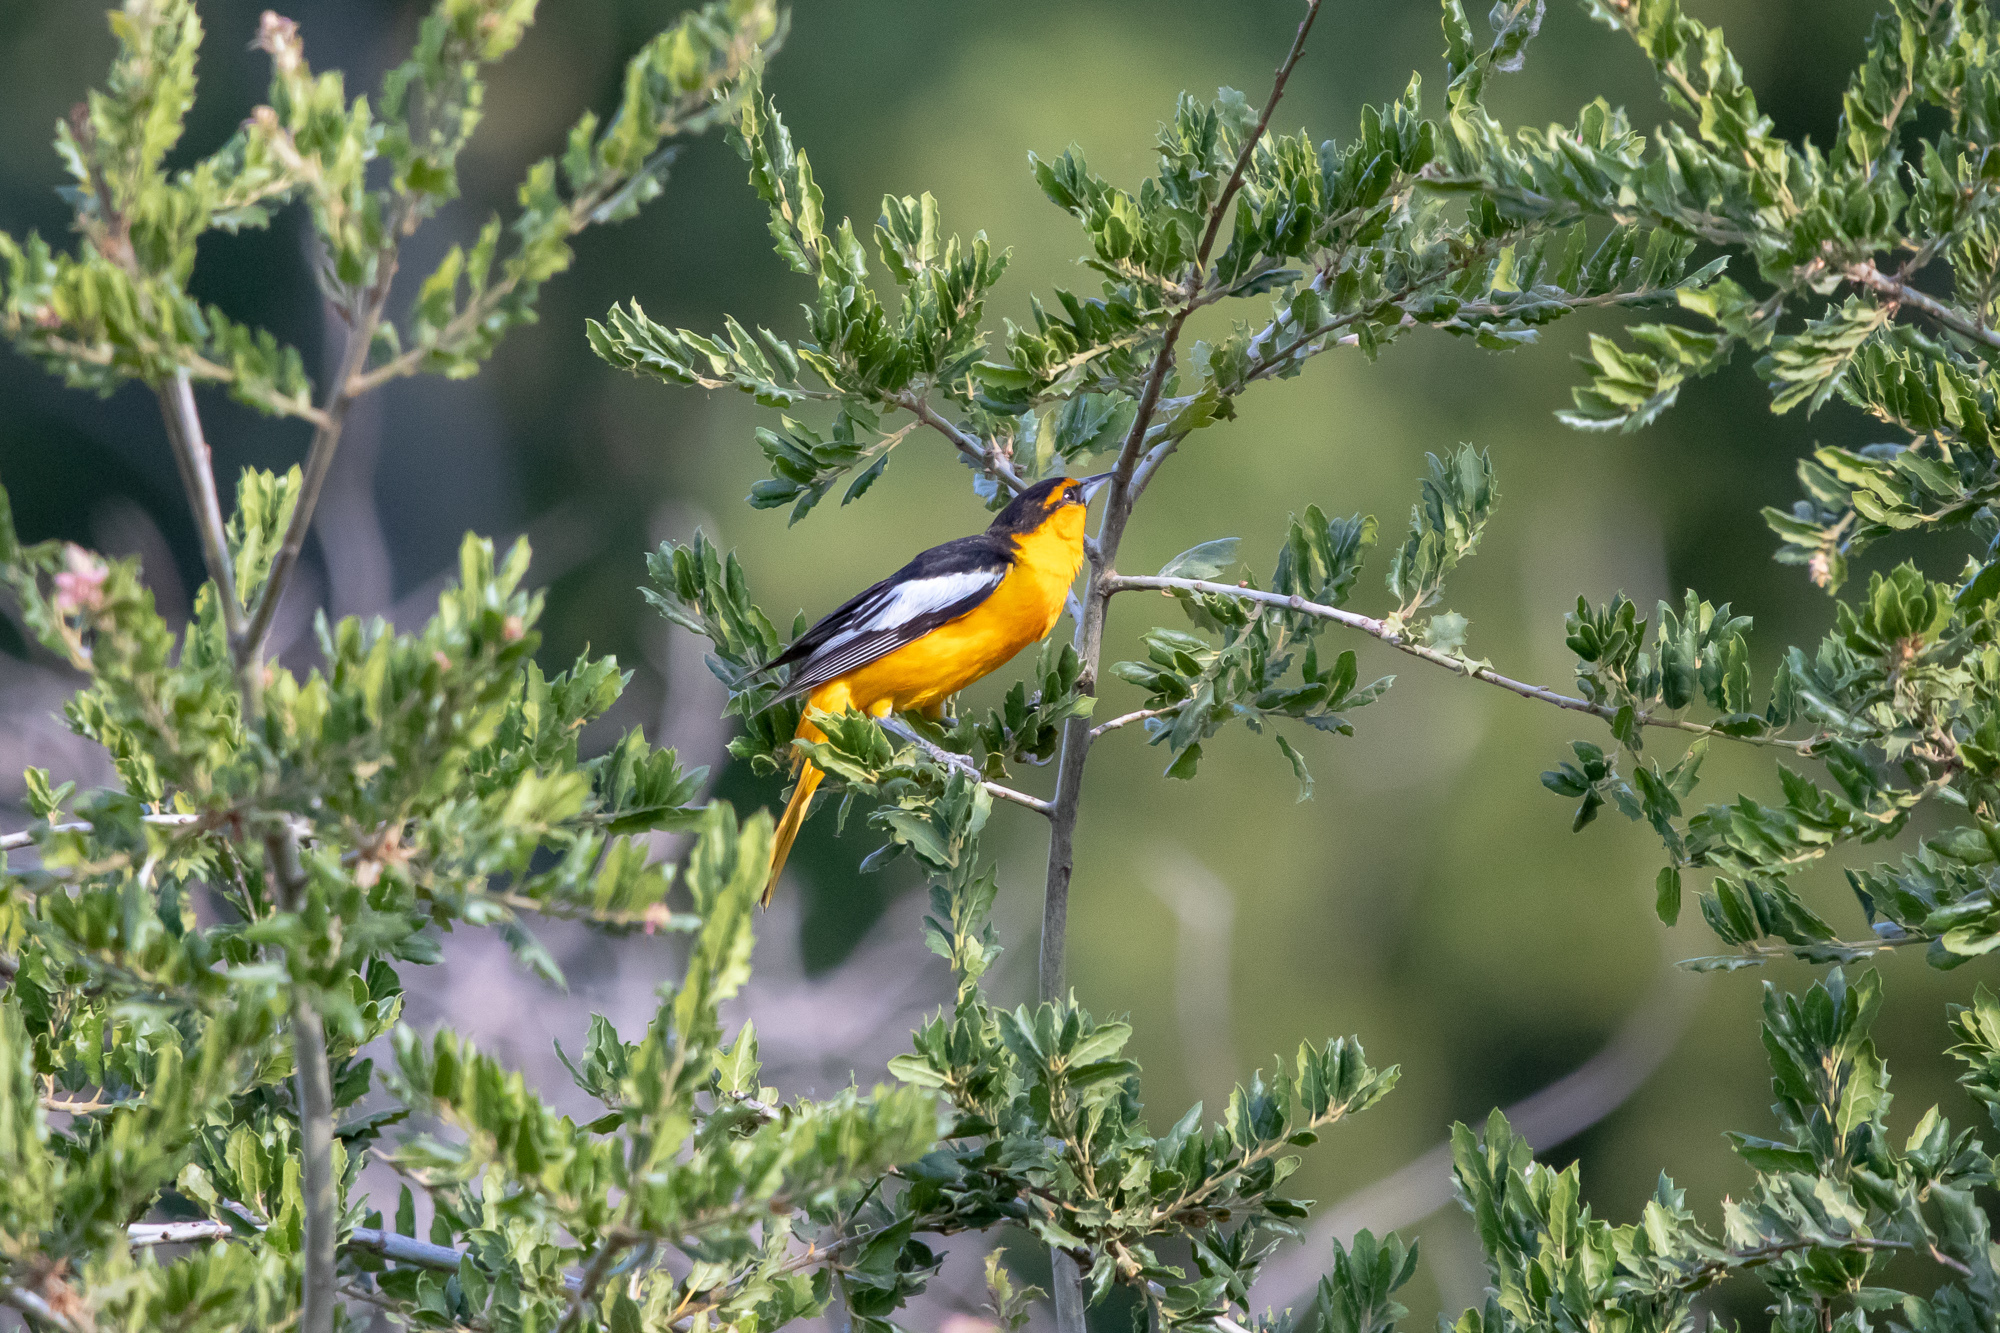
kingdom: Animalia
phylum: Chordata
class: Aves
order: Passeriformes
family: Icteridae
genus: Icterus
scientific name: Icterus bullockii
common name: Bullock's oriole
